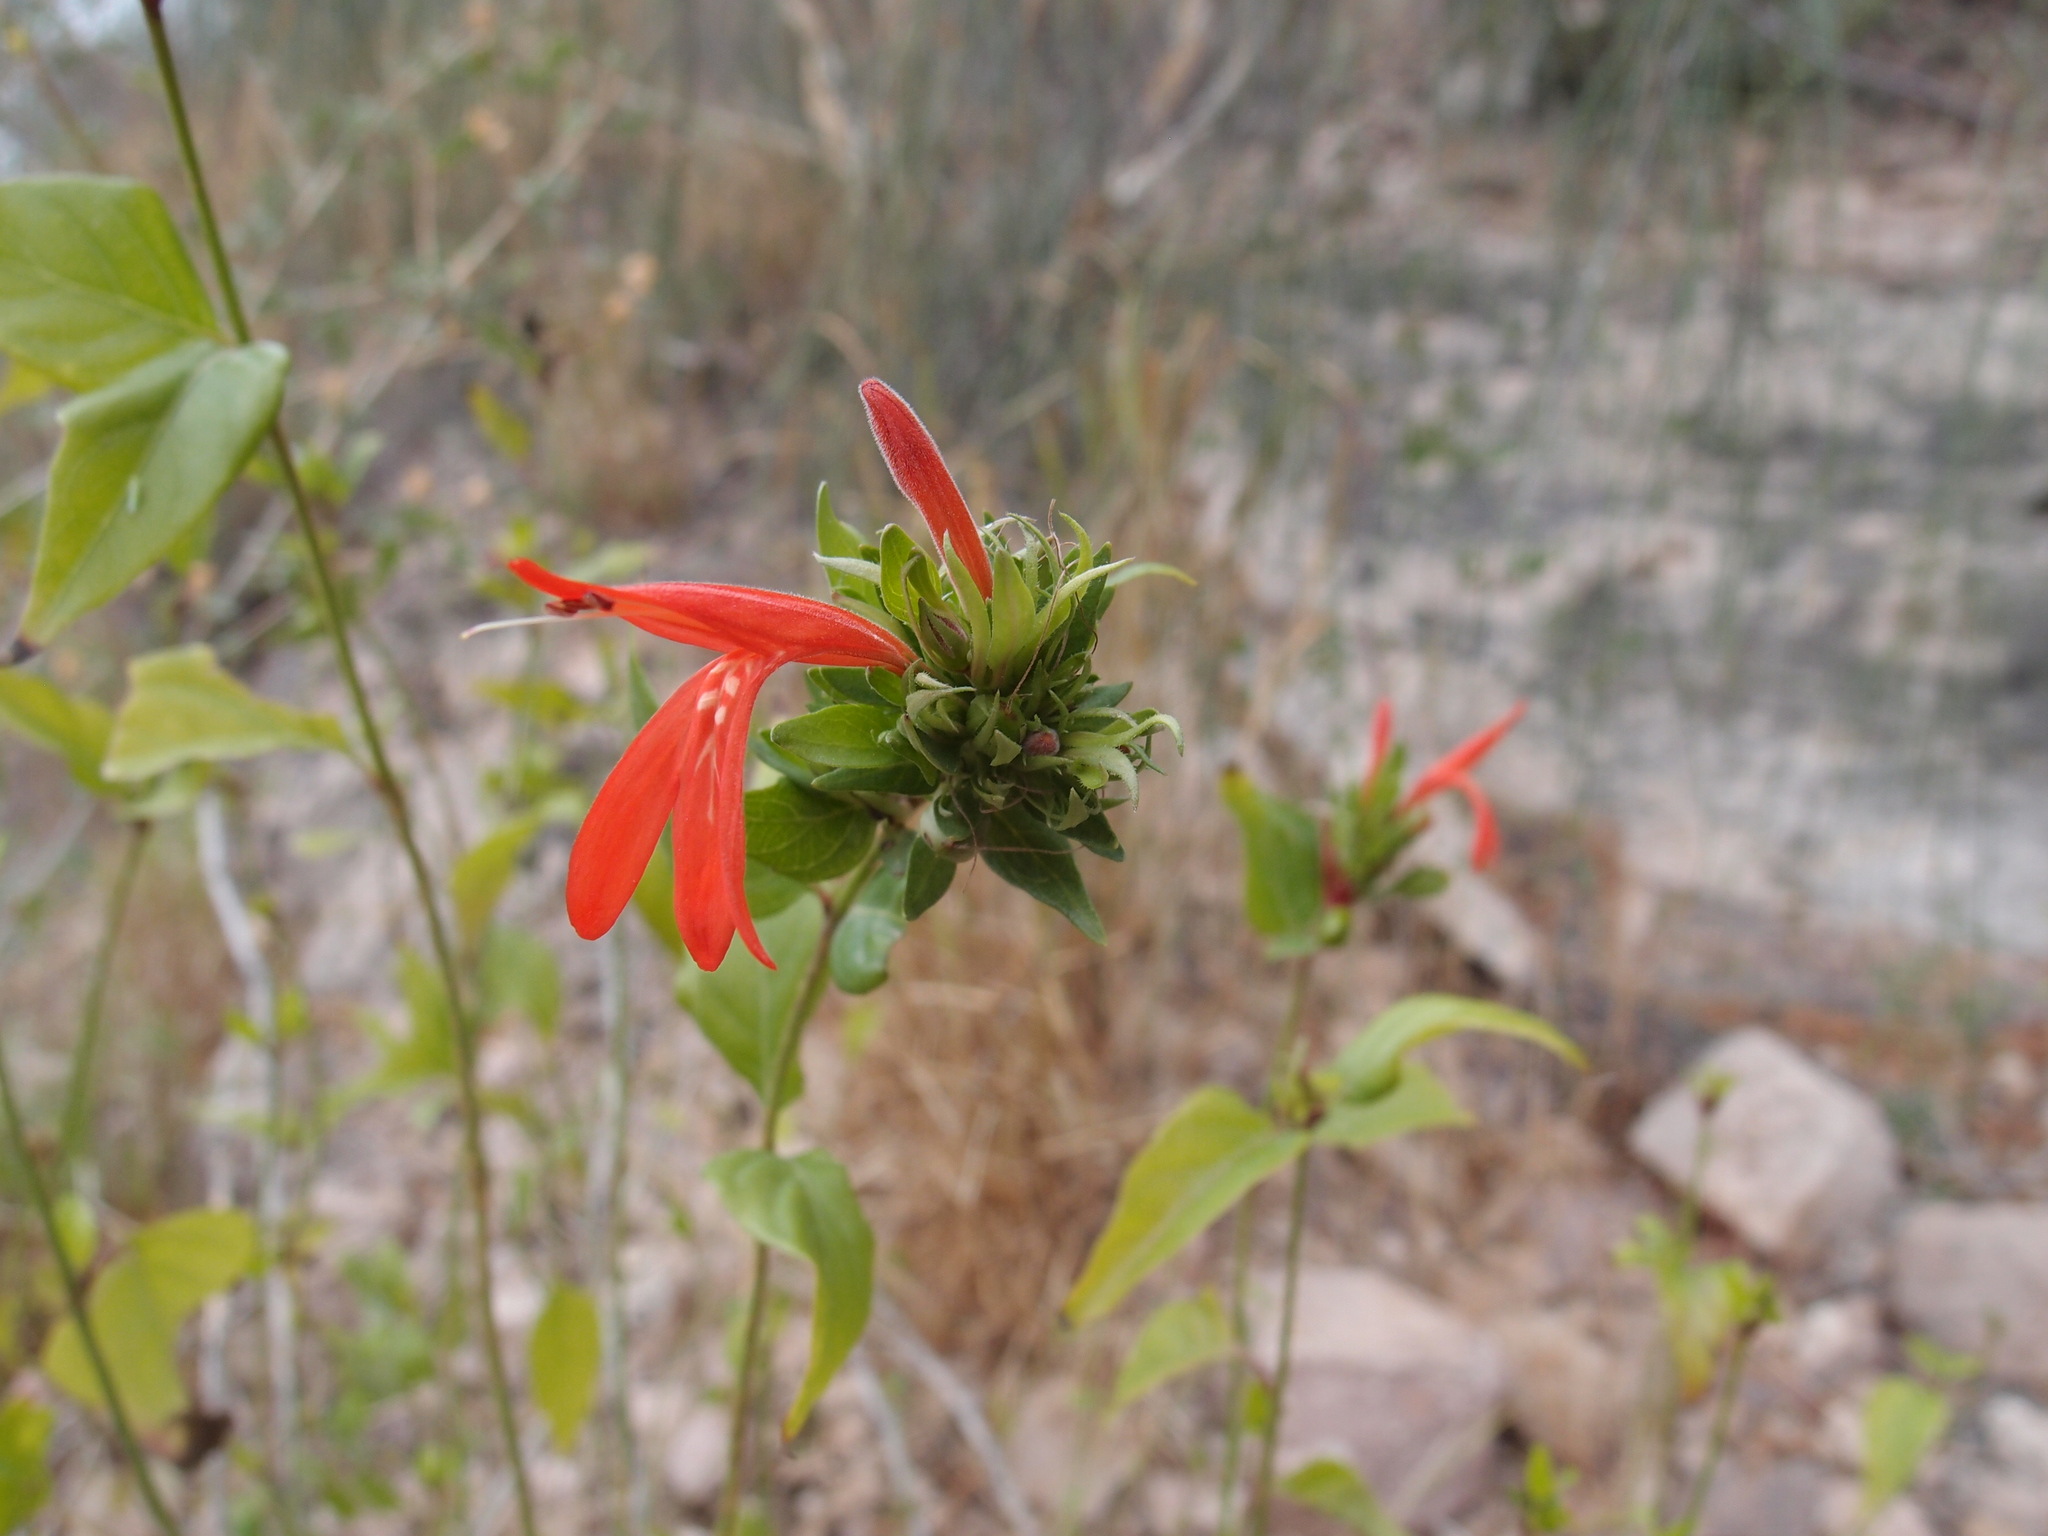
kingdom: Plantae
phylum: Tracheophyta
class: Magnoliopsida
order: Lamiales
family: Acanthaceae
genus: Dianthera
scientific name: Dianthera candicans
